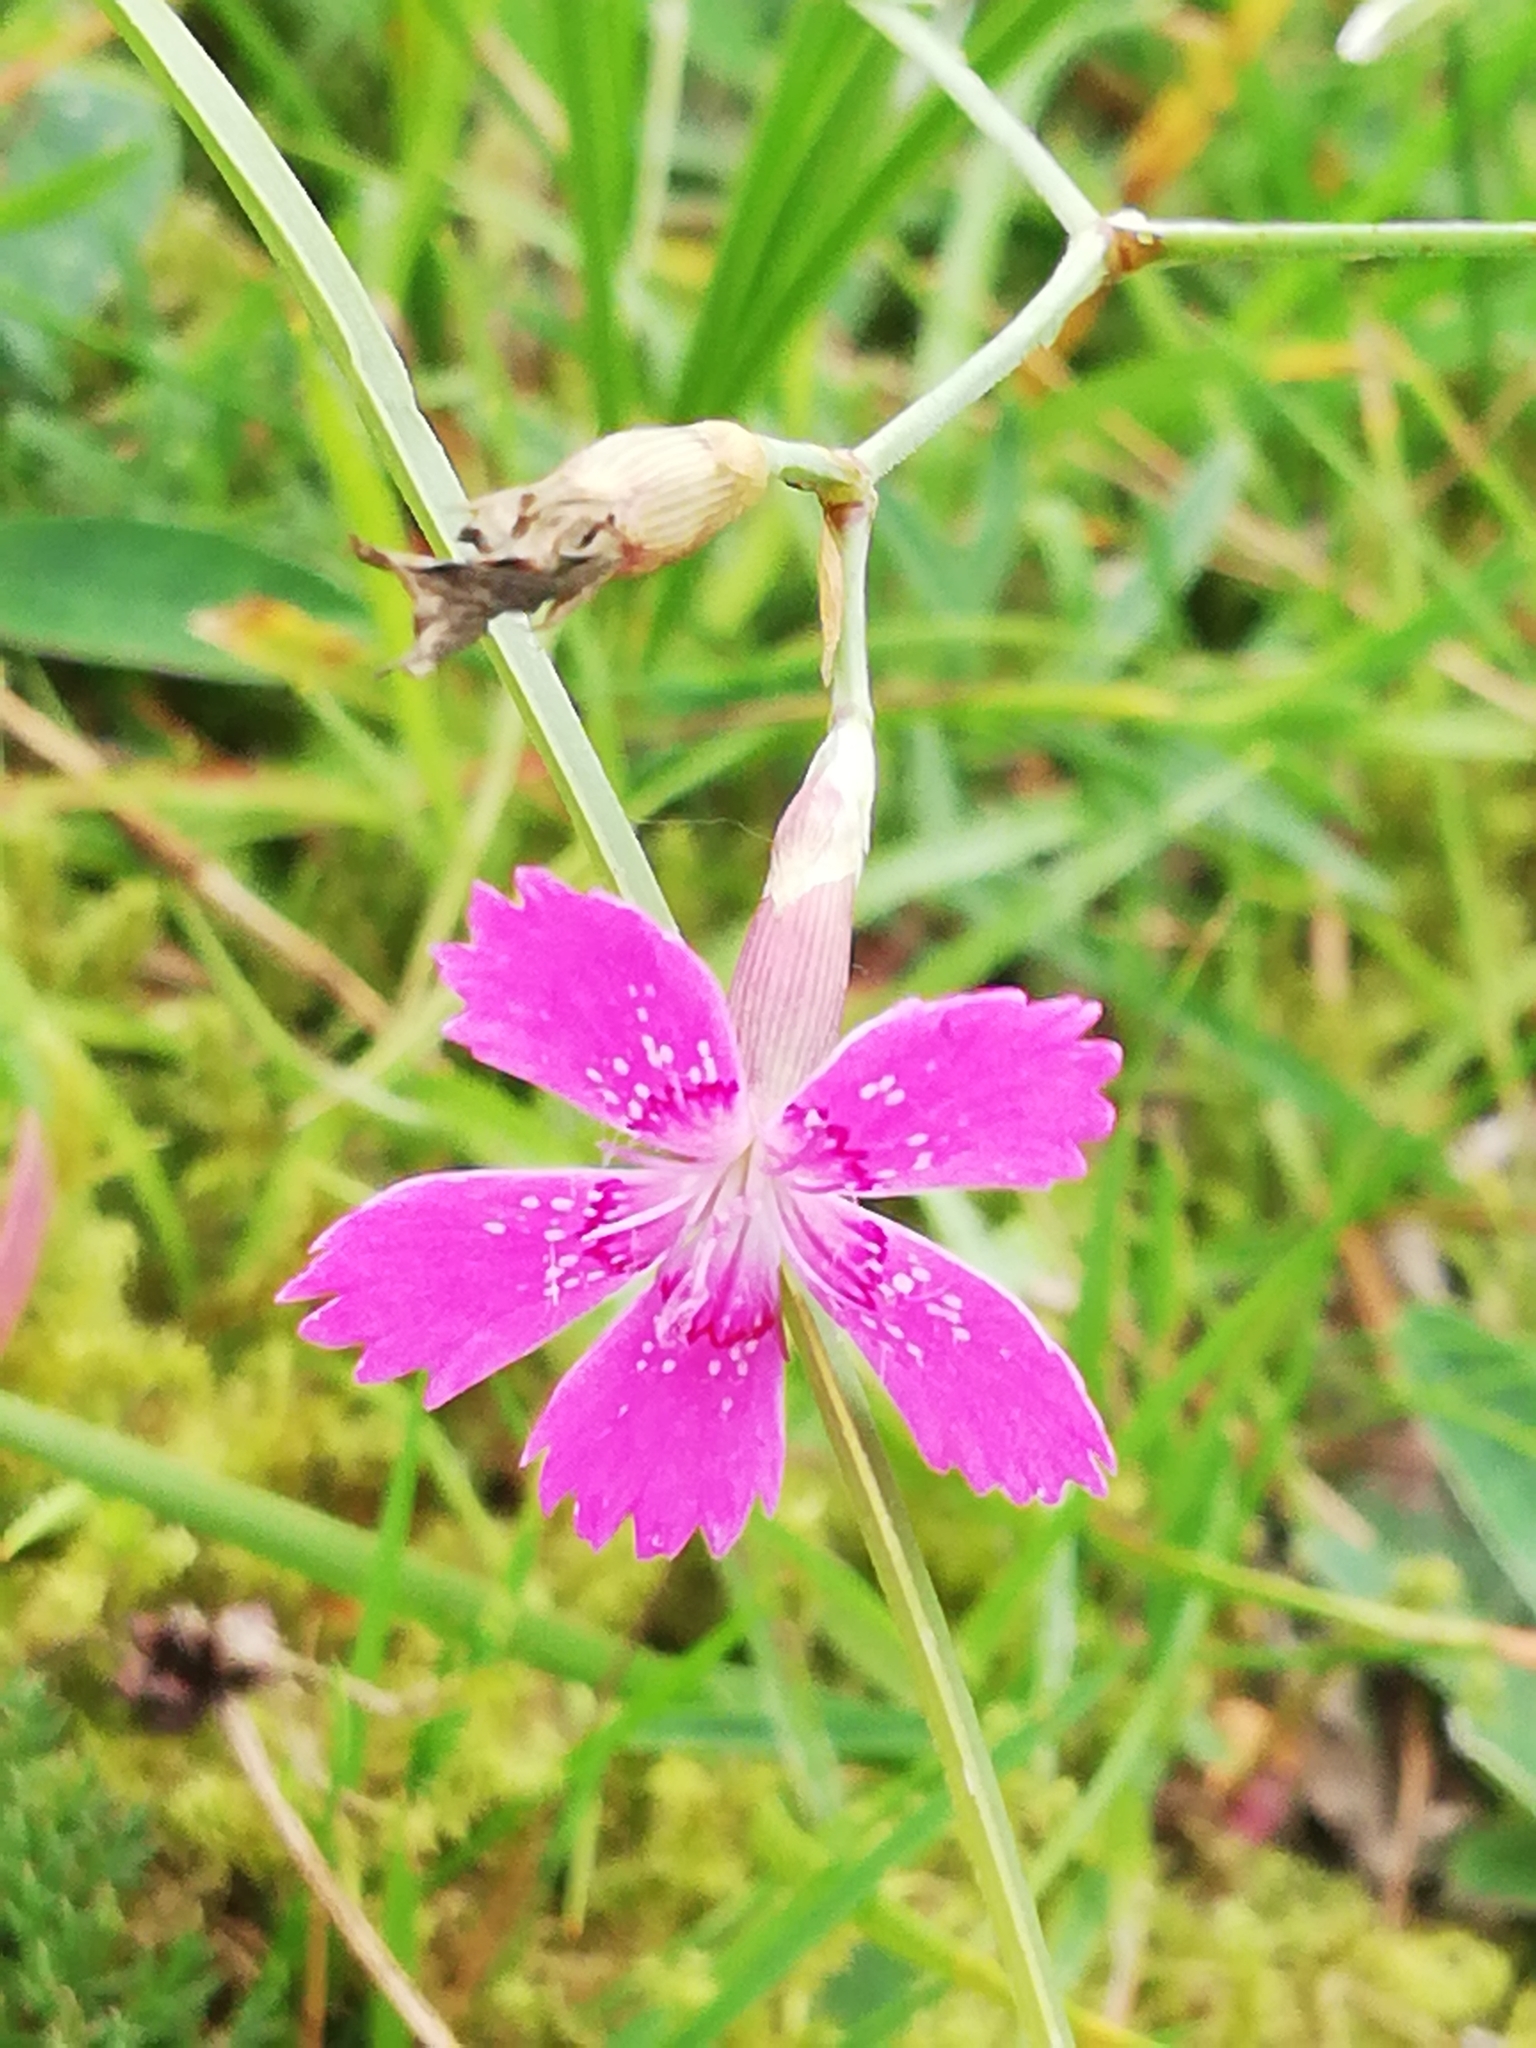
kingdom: Plantae
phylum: Tracheophyta
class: Magnoliopsida
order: Caryophyllales
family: Caryophyllaceae
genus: Dianthus
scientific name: Dianthus deltoides
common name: Maiden pink
